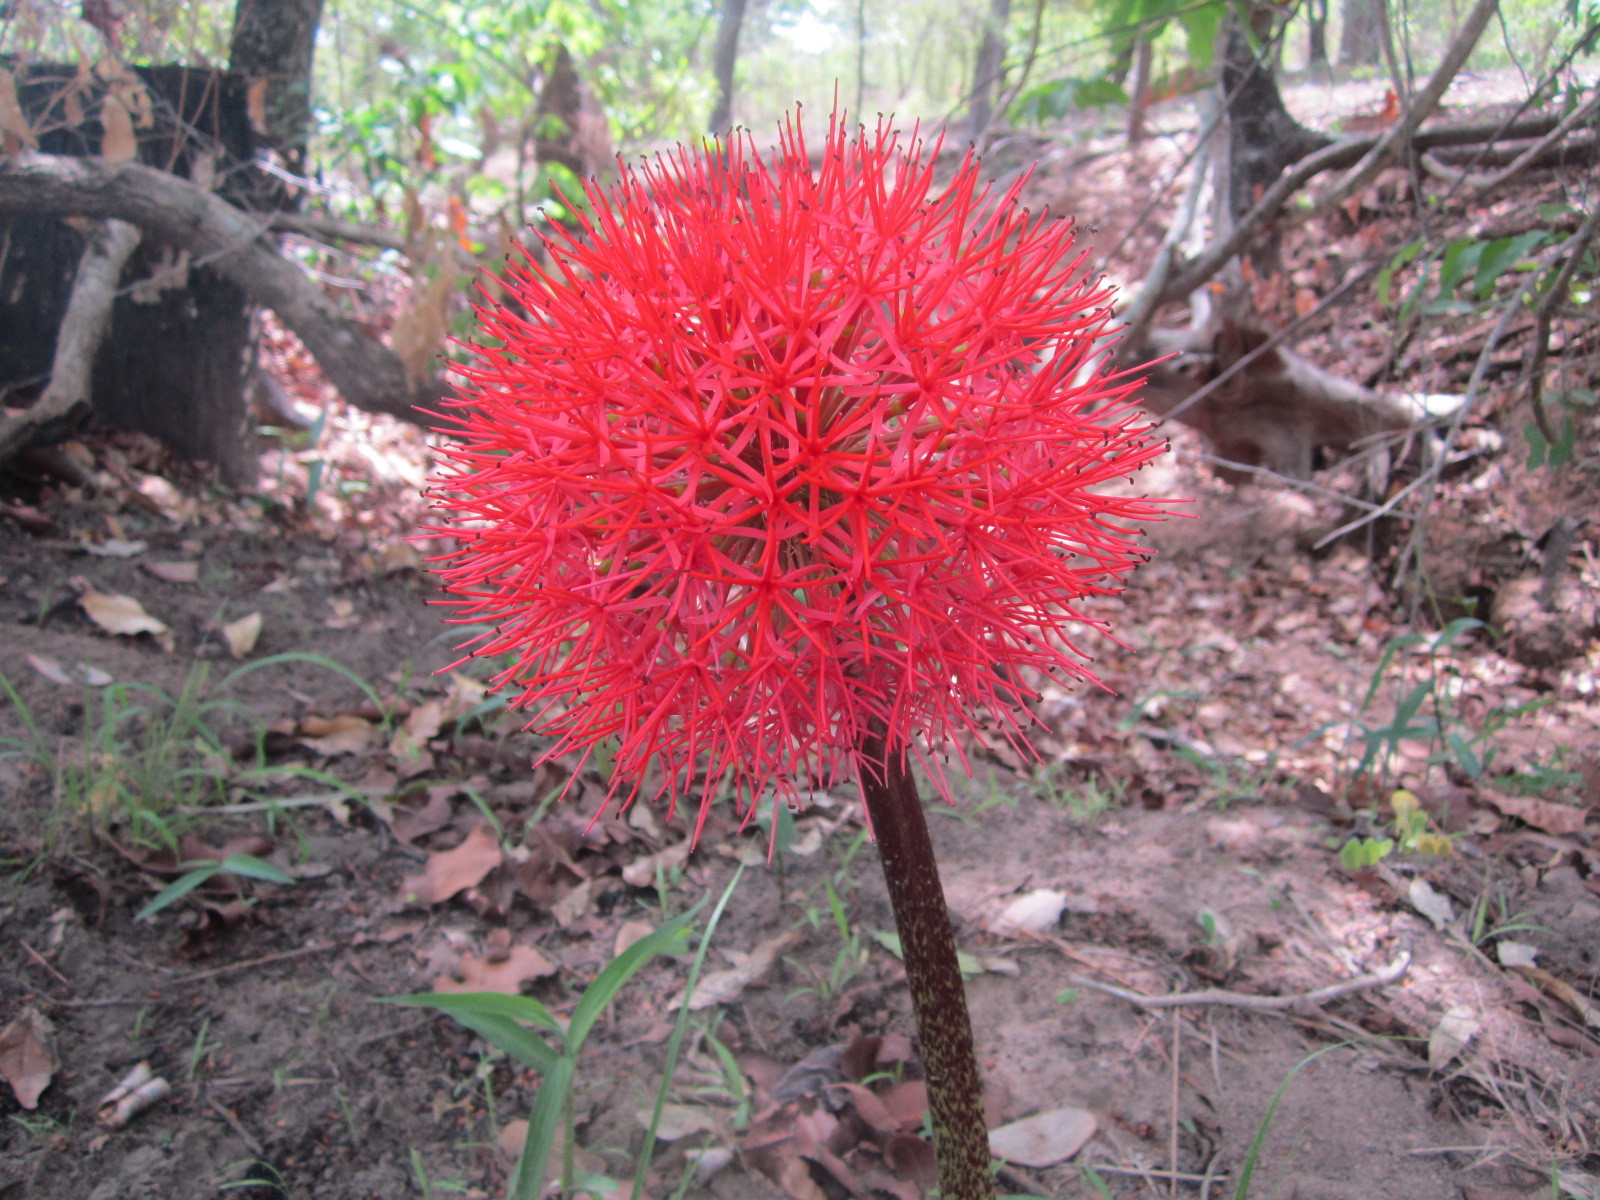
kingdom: Plantae
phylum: Tracheophyta
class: Liliopsida
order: Asparagales
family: Amaryllidaceae
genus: Scadoxus
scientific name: Scadoxus multiflorus
